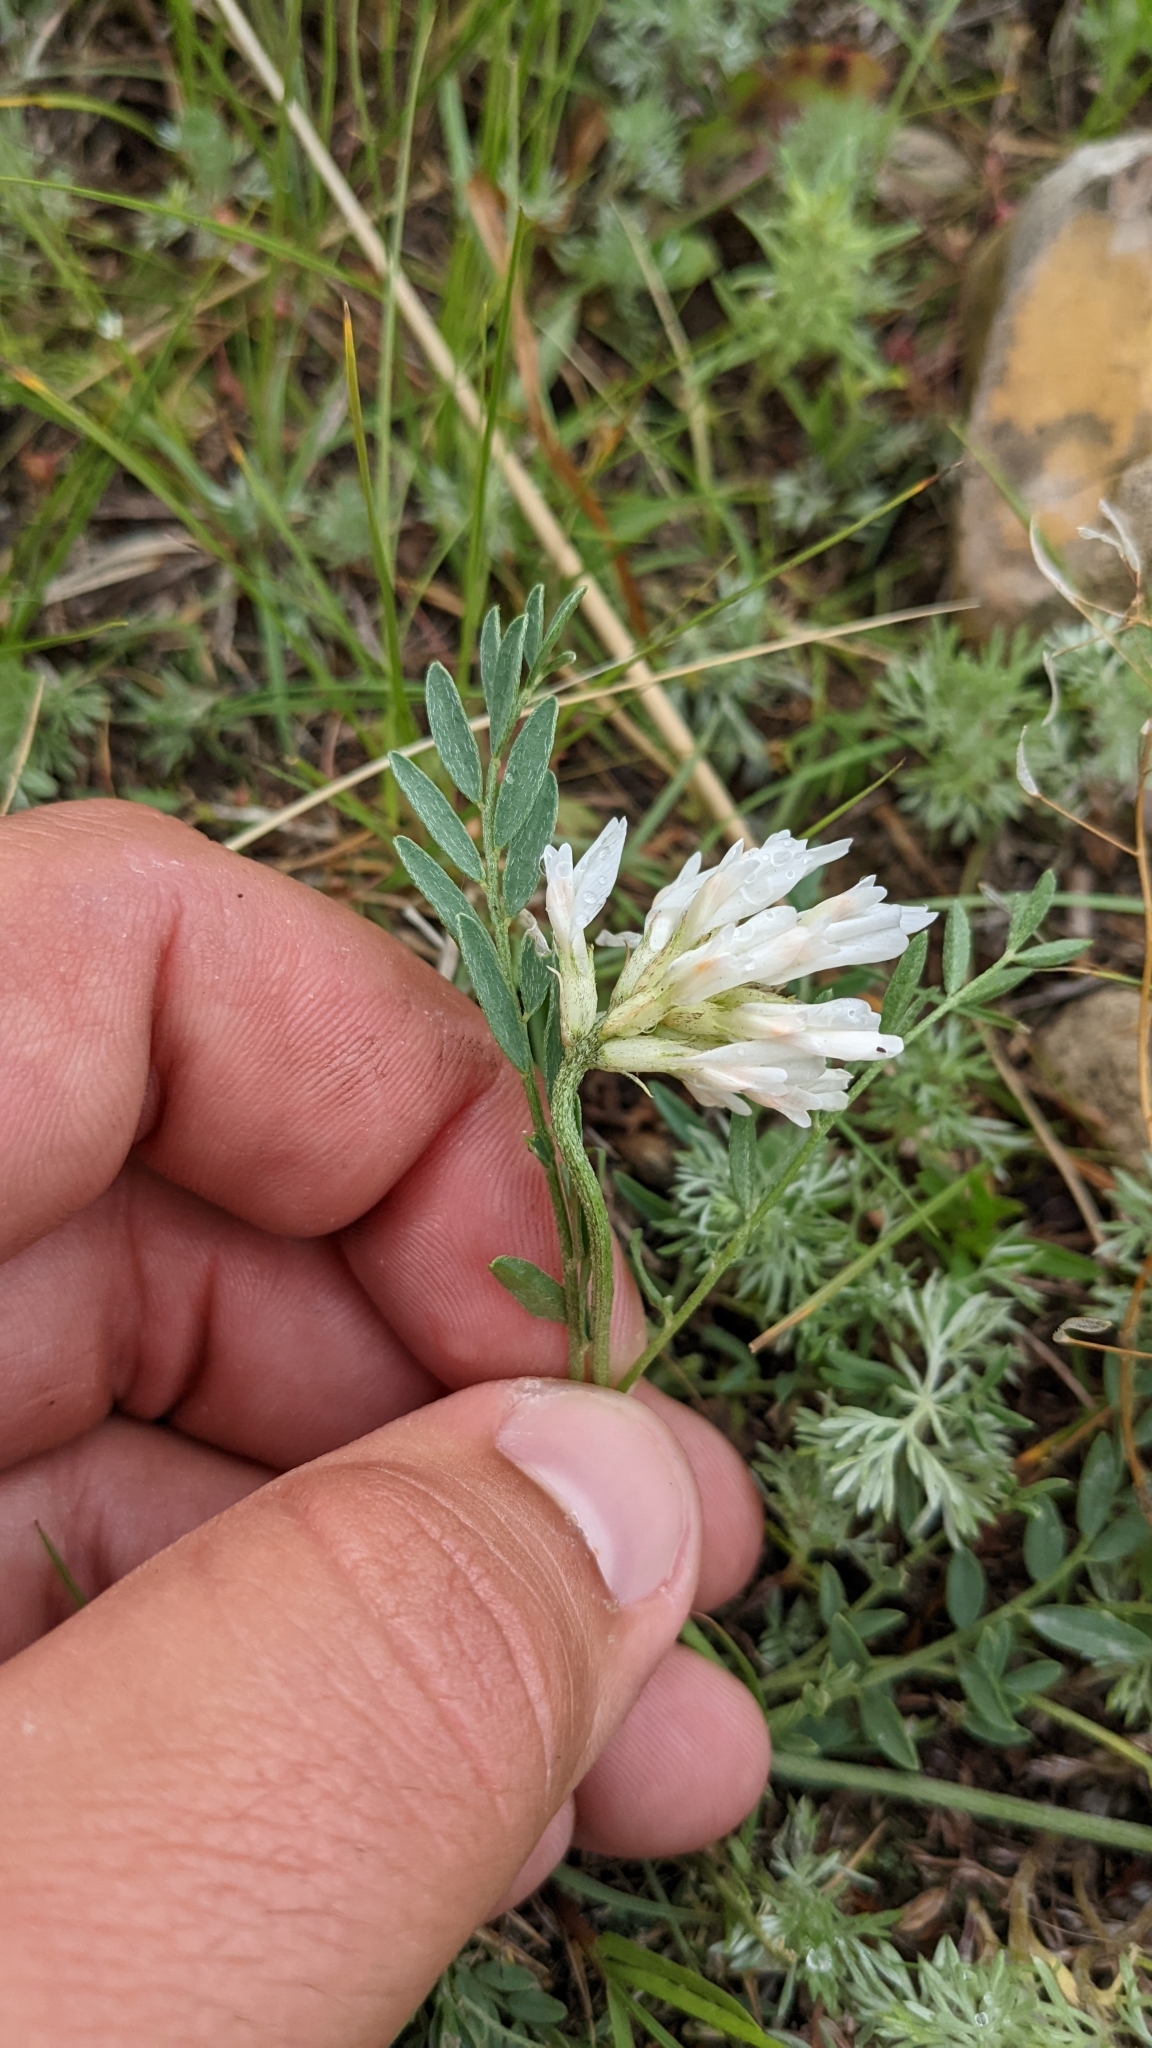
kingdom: Plantae
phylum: Tracheophyta
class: Magnoliopsida
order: Fabales
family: Fabaceae
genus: Astragalus
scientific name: Astragalus laxmannii
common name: Laxmann's milk-vetch
